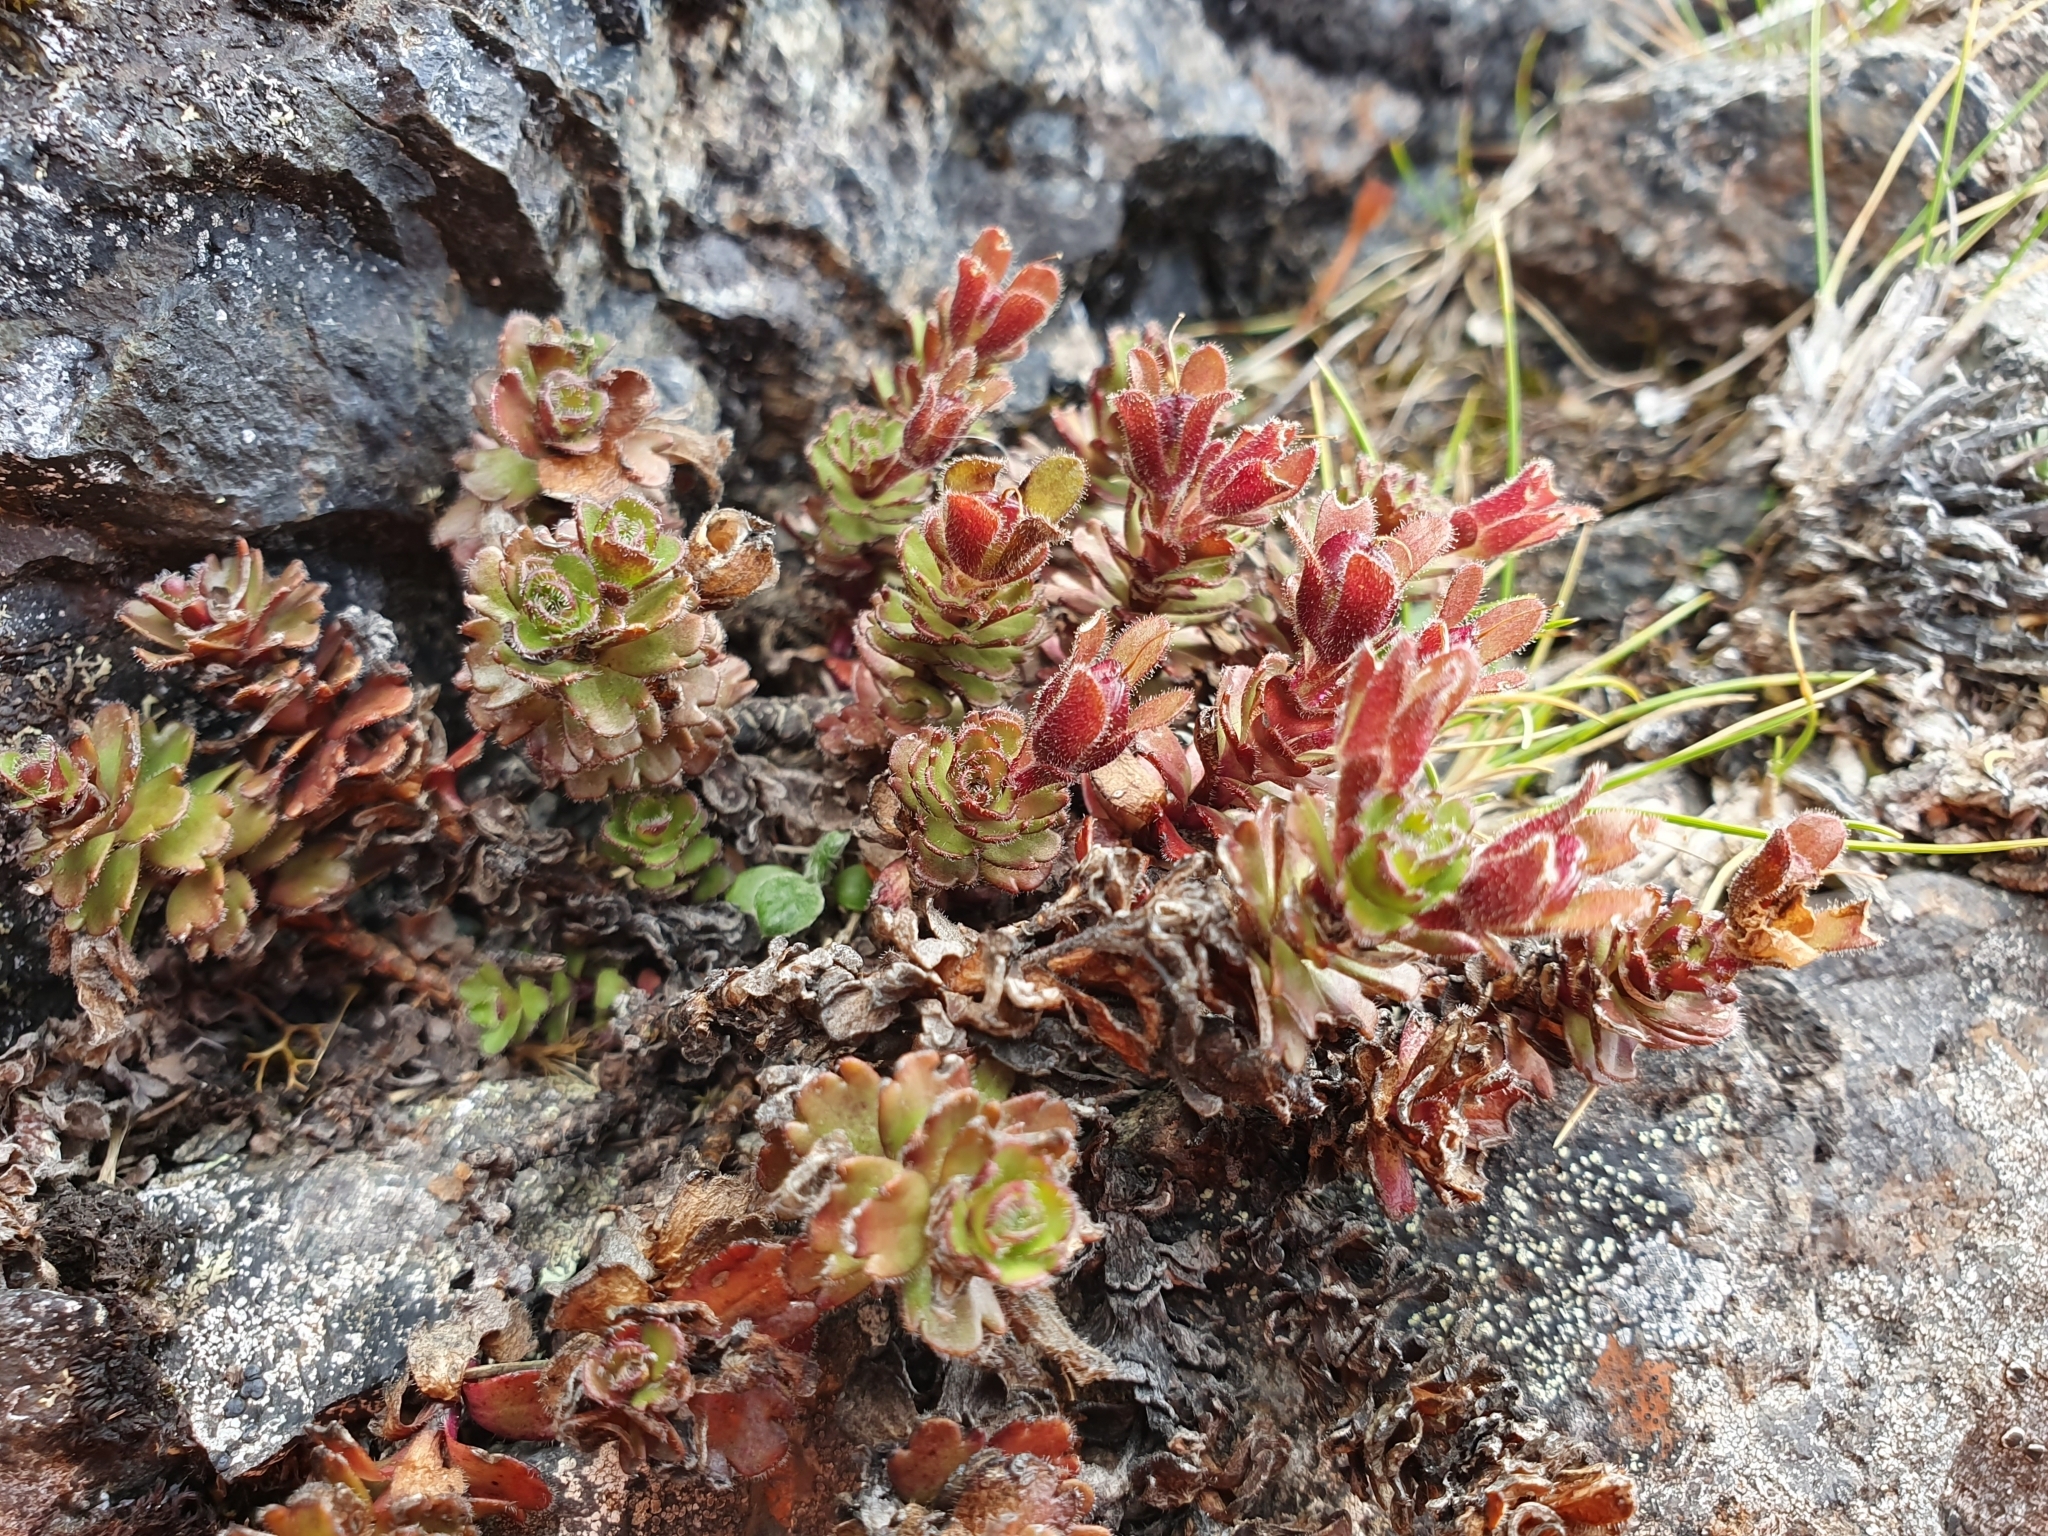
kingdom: Plantae
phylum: Tracheophyta
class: Magnoliopsida
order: Lamiales
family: Plantaginaceae
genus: Veronica
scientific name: Veronica spectabilis
